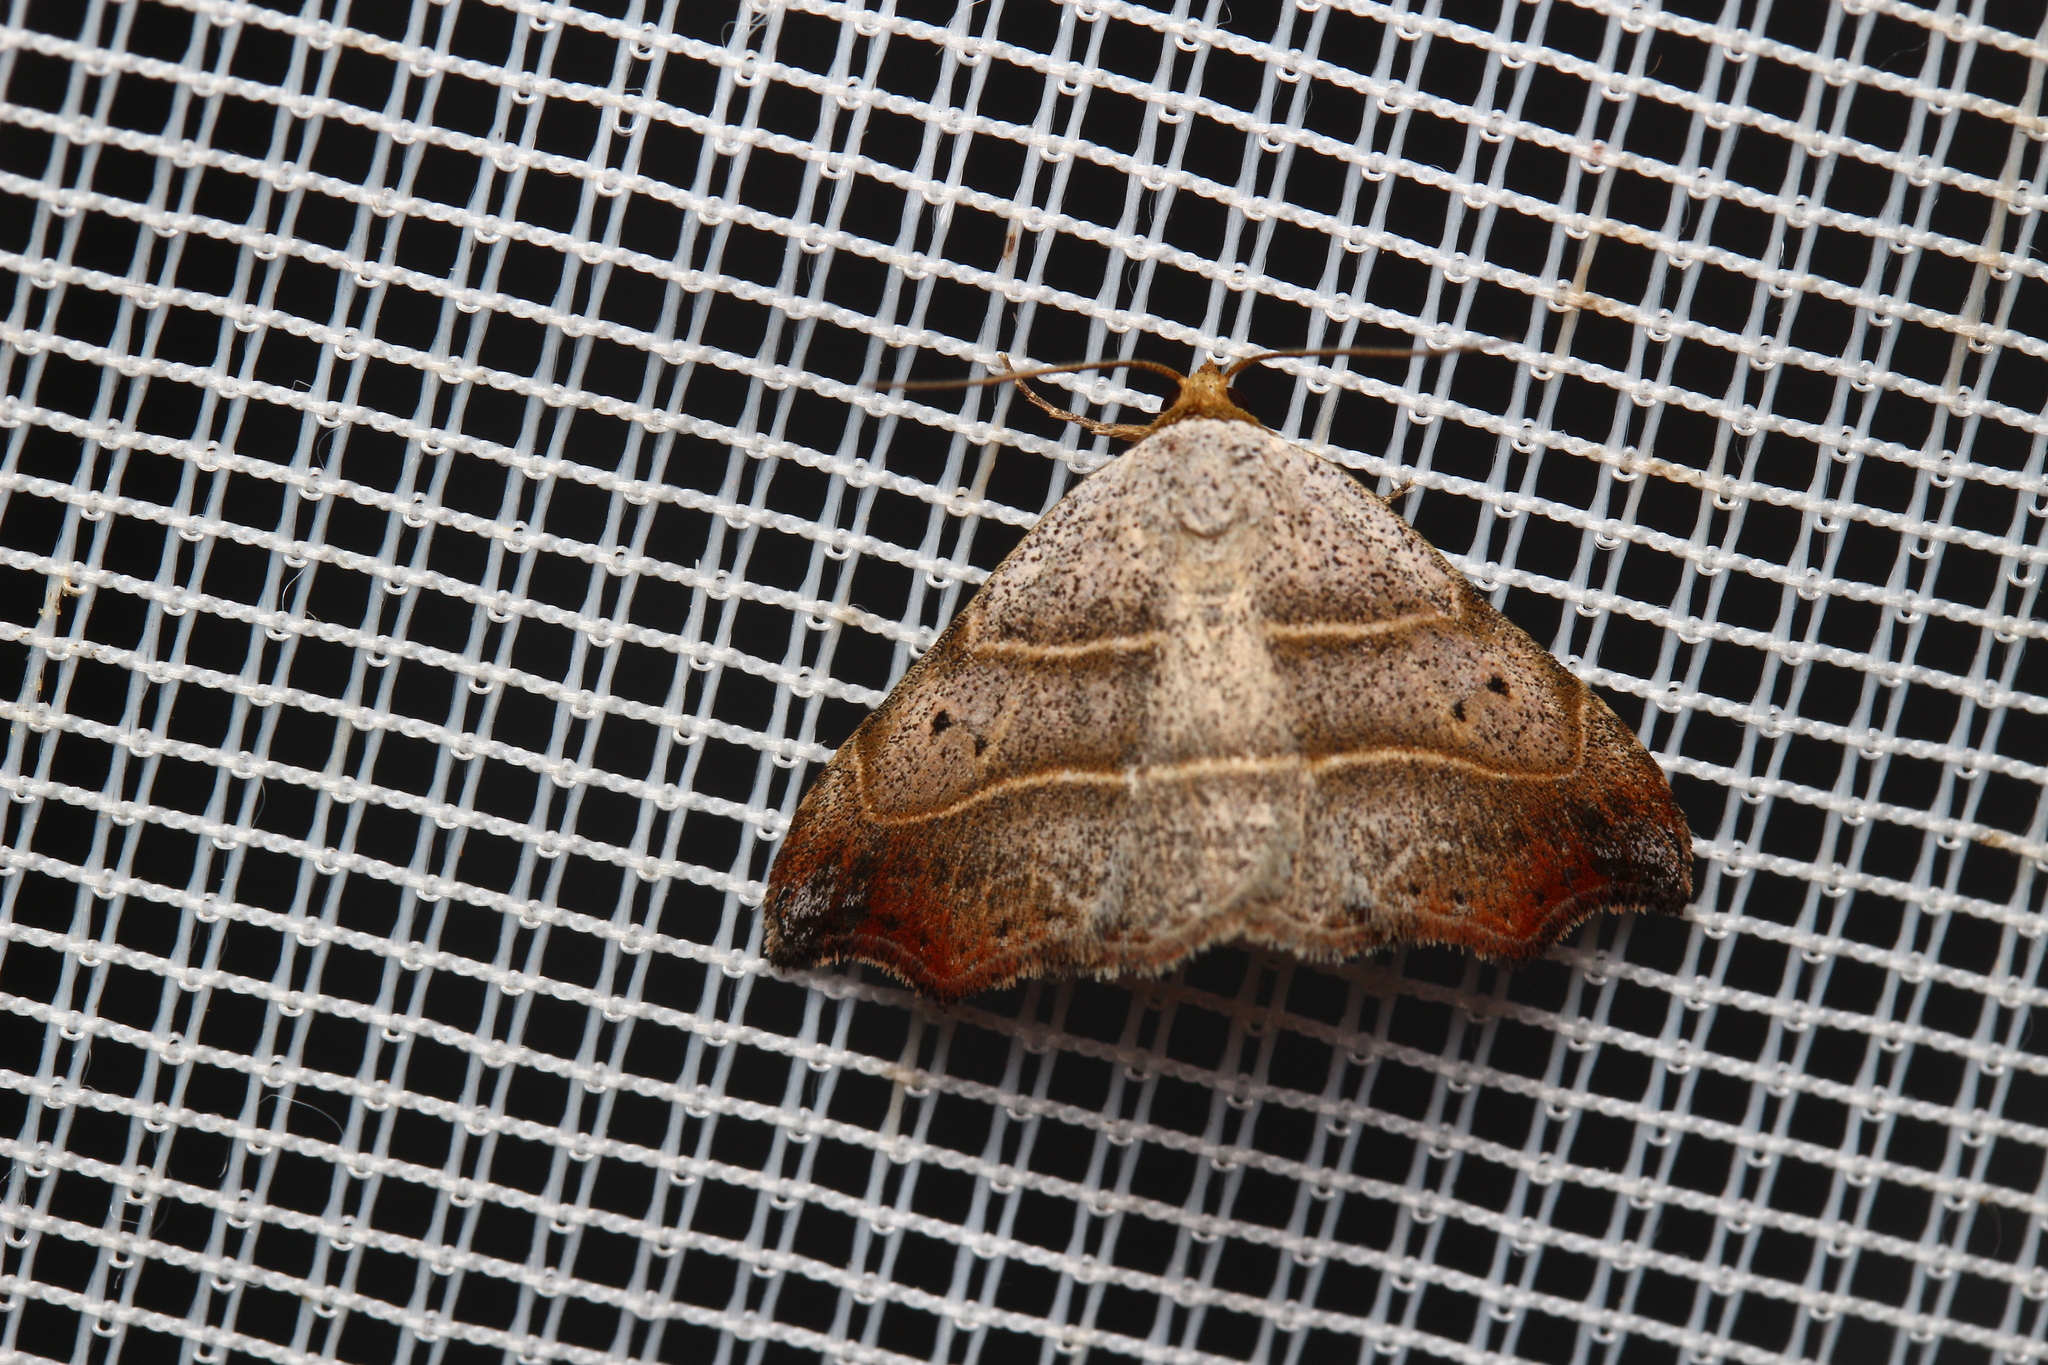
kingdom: Animalia
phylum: Arthropoda
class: Insecta
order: Lepidoptera
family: Erebidae
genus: Laspeyria
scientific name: Laspeyria flexula
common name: Beautiful hook-tip
